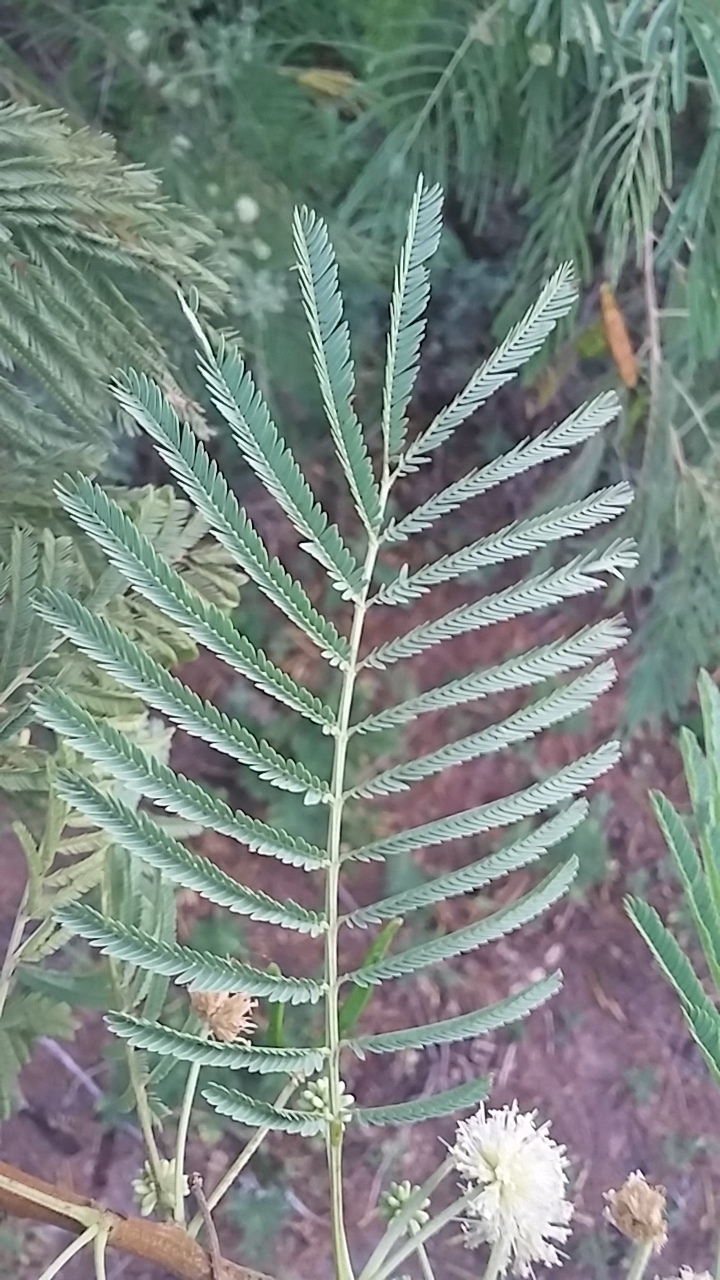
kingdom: Plantae
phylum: Tracheophyta
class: Magnoliopsida
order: Fabales
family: Fabaceae
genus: Leucaena
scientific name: Leucaena pulverulenta
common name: Great leadtree
